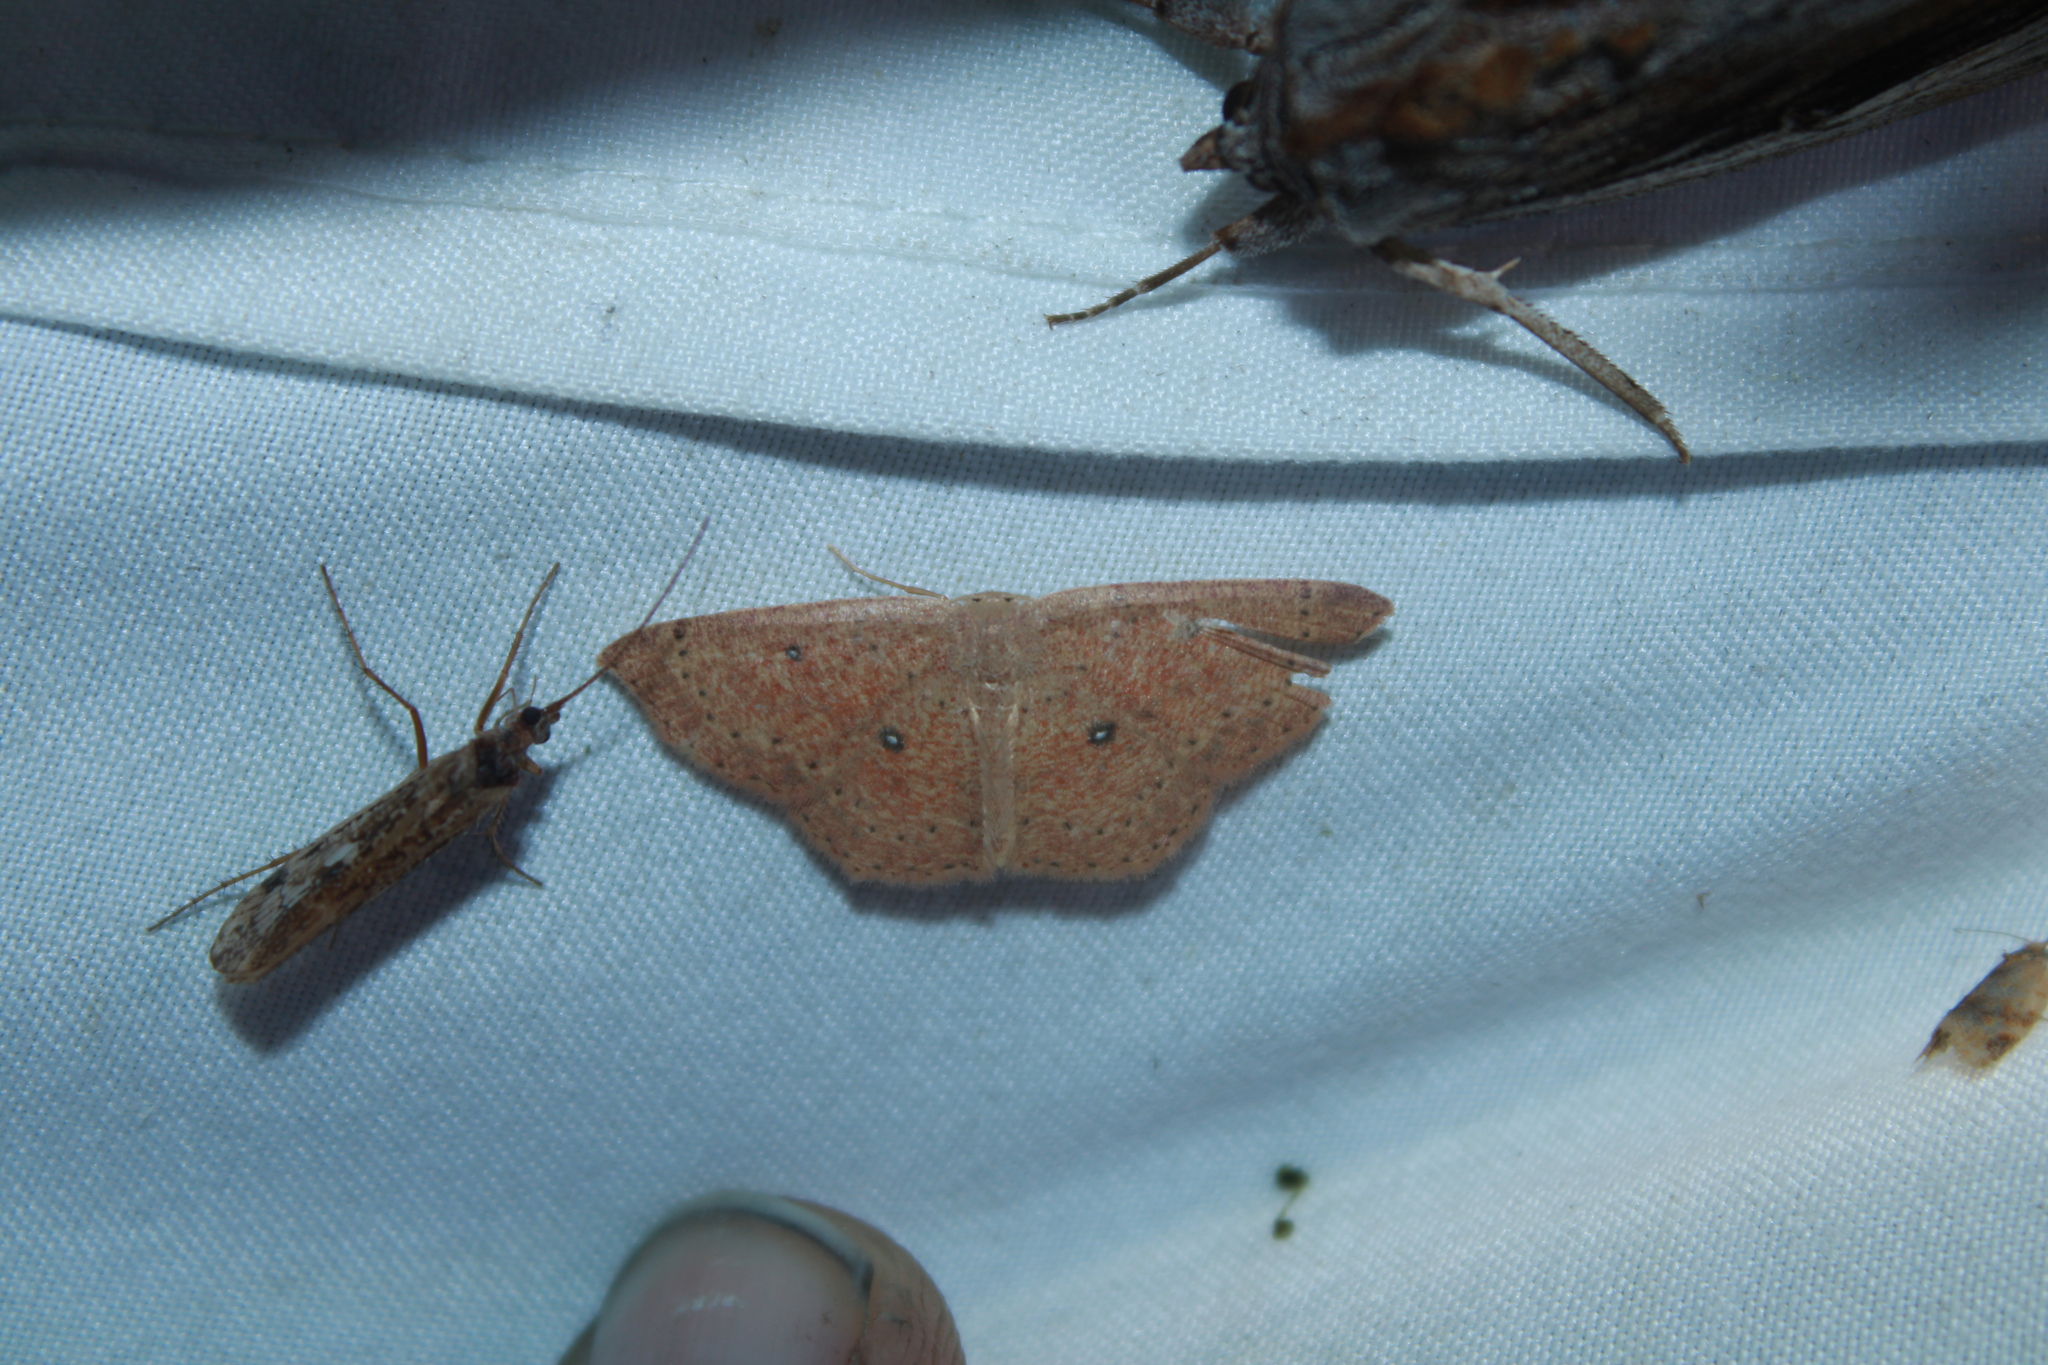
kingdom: Animalia
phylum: Arthropoda
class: Insecta
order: Lepidoptera
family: Geometridae
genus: Cyclophora
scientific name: Cyclophora packardi
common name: Packard's wave
